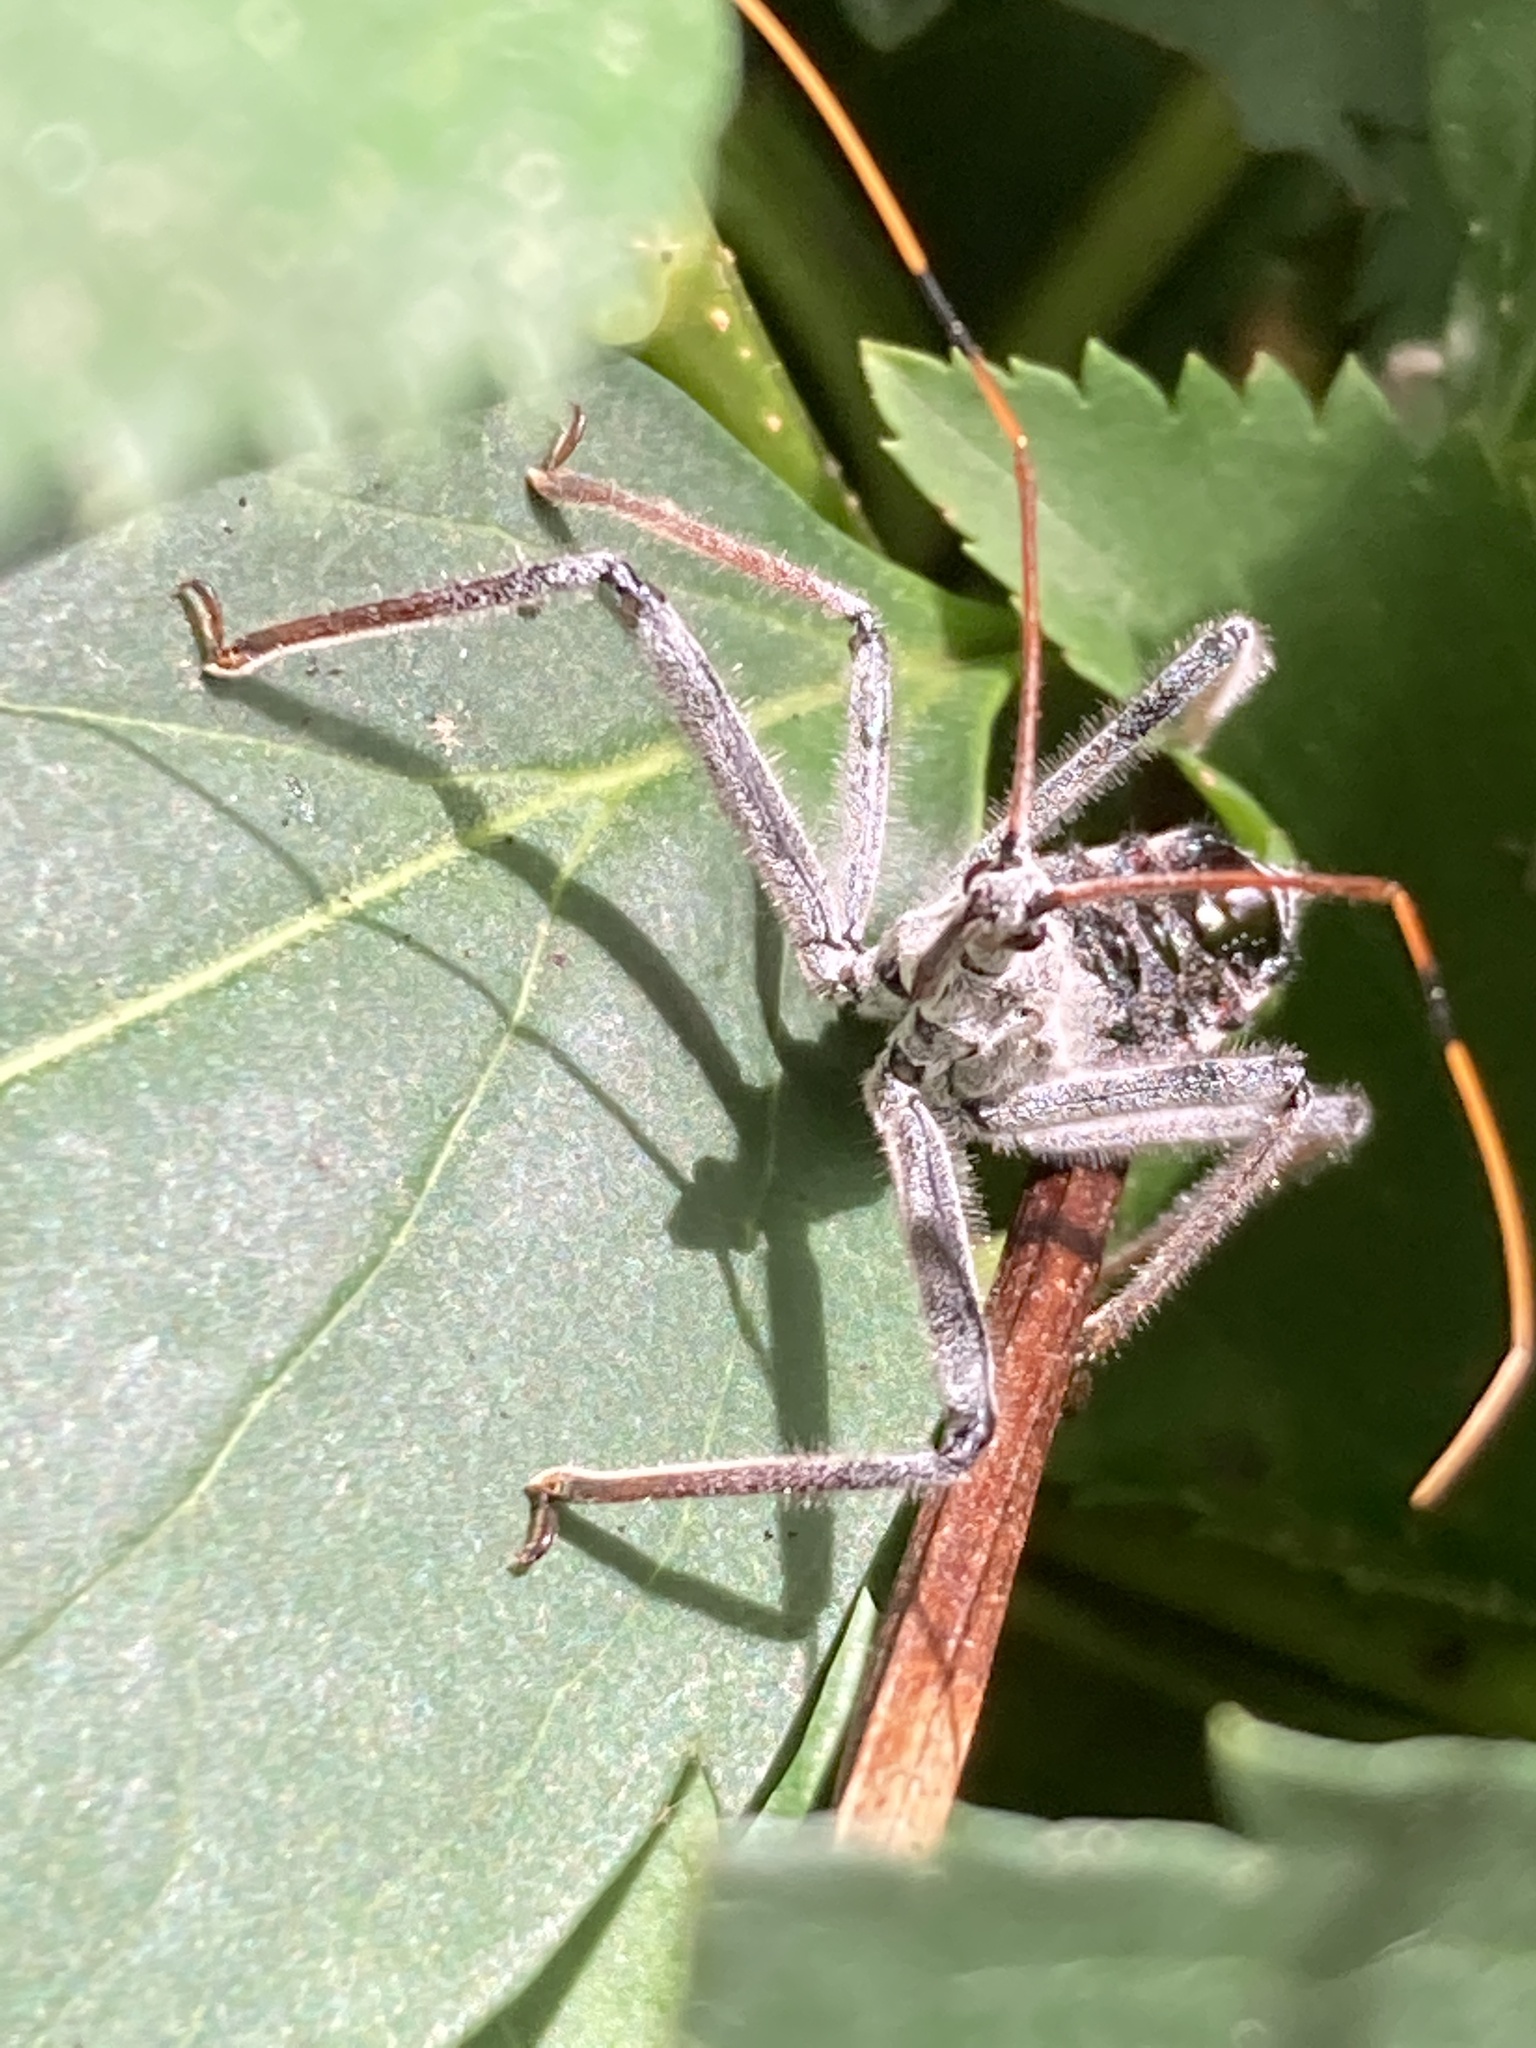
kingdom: Animalia
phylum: Arthropoda
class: Insecta
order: Hemiptera
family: Reduviidae
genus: Arilus
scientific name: Arilus cristatus
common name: North american wheel bug
